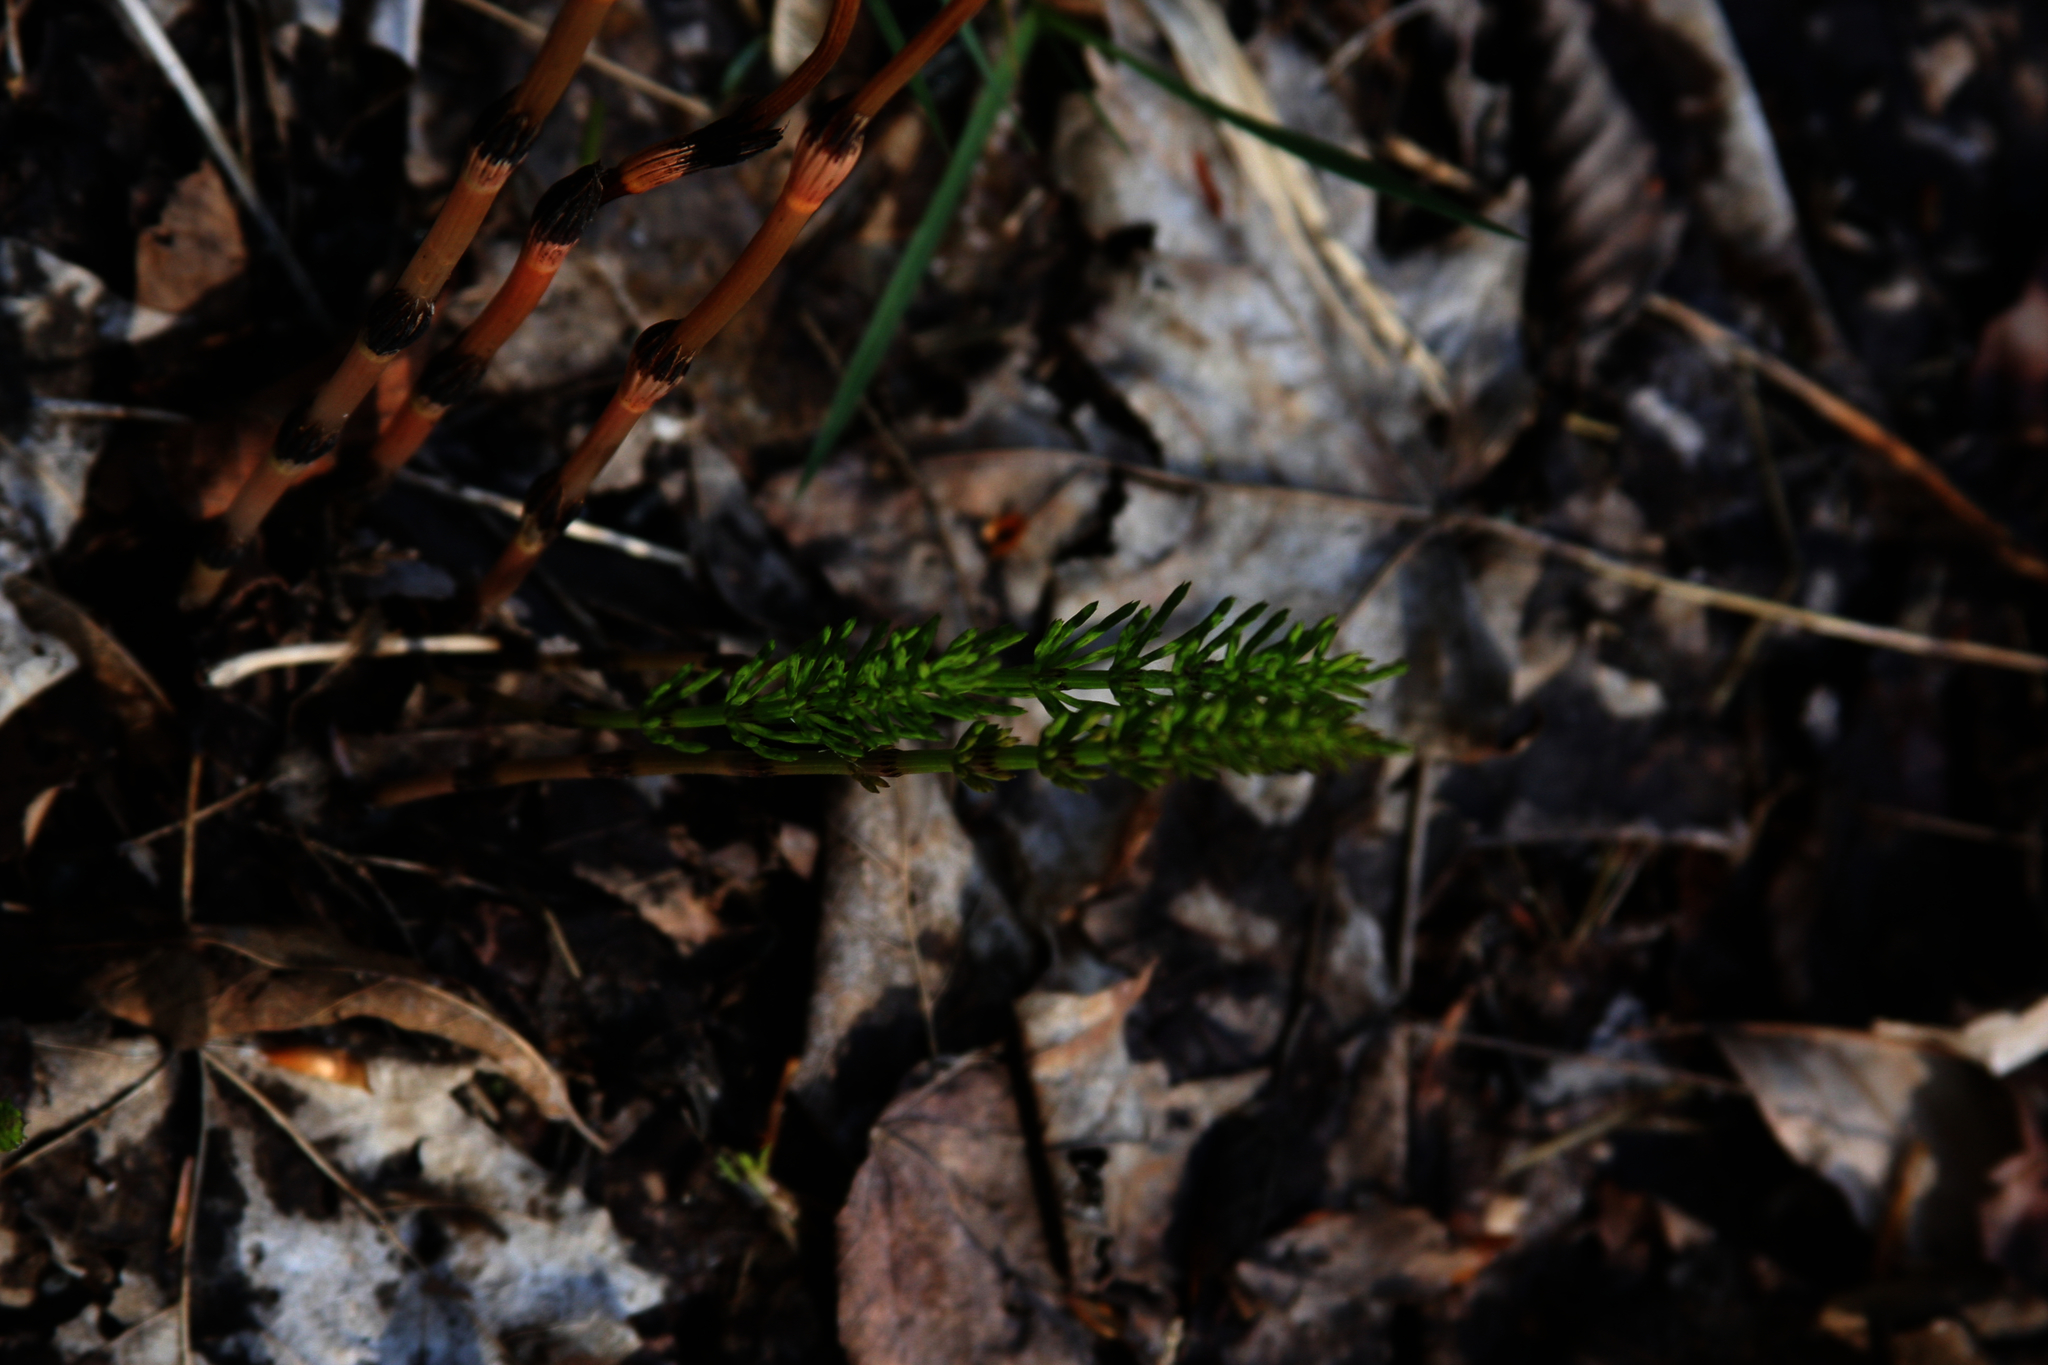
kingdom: Plantae
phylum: Tracheophyta
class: Polypodiopsida
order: Equisetales
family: Equisetaceae
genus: Equisetum
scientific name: Equisetum arvense
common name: Field horsetail
